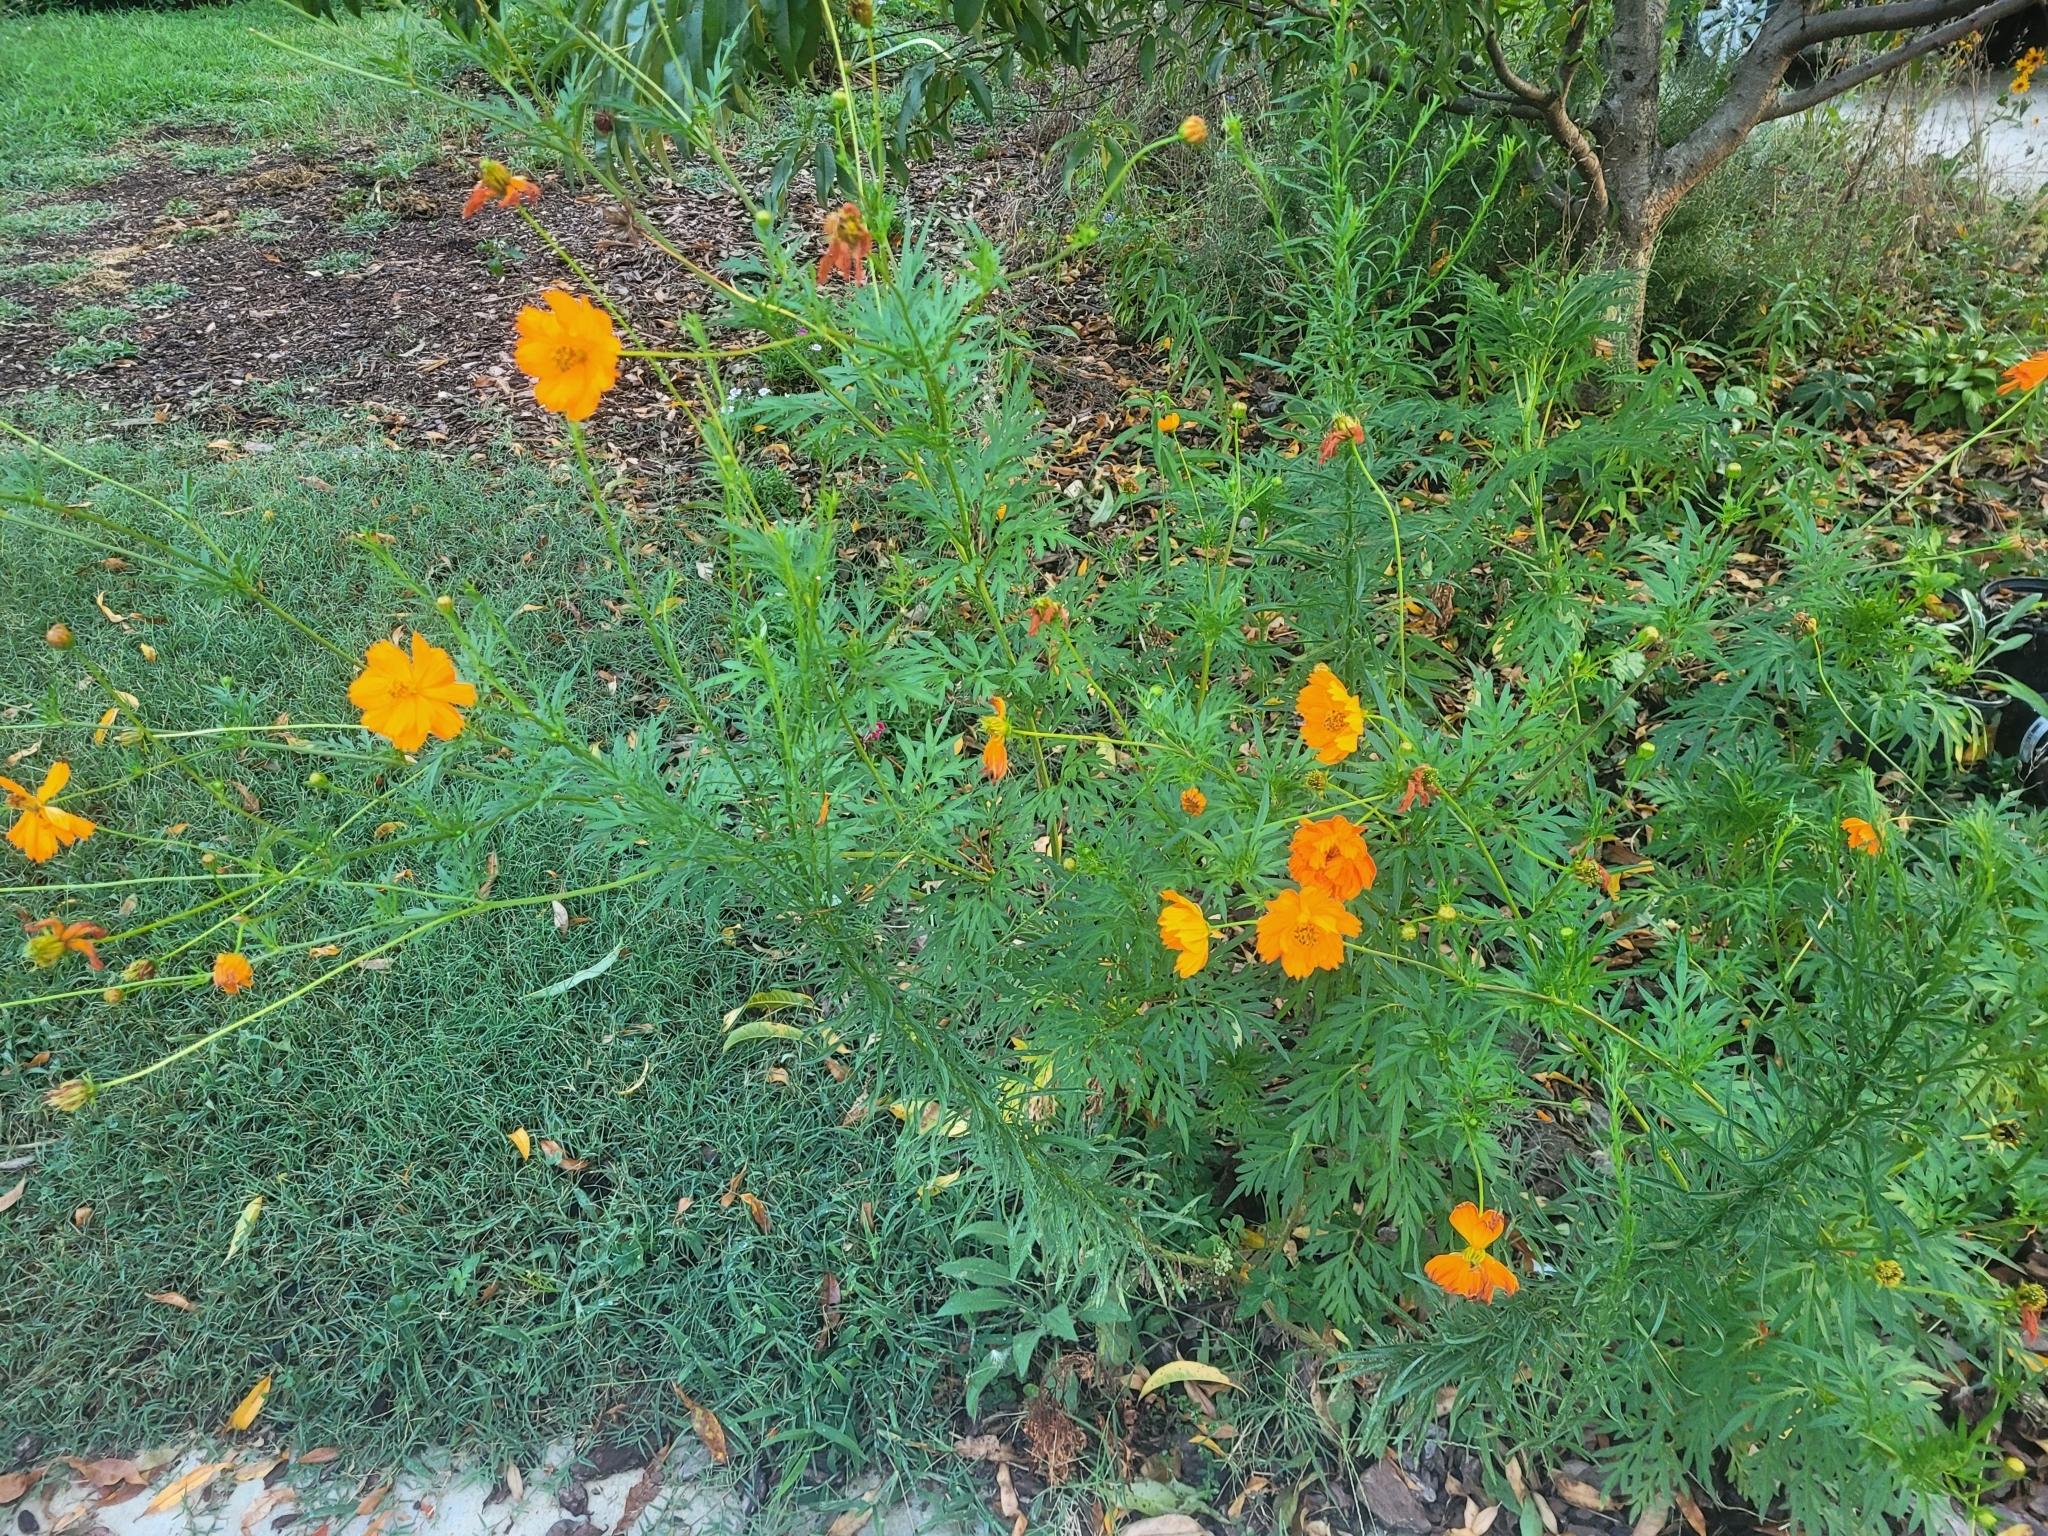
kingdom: Plantae
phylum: Tracheophyta
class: Magnoliopsida
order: Asterales
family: Asteraceae
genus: Cosmos
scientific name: Cosmos sulphureus
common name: Sulphur cosmos
